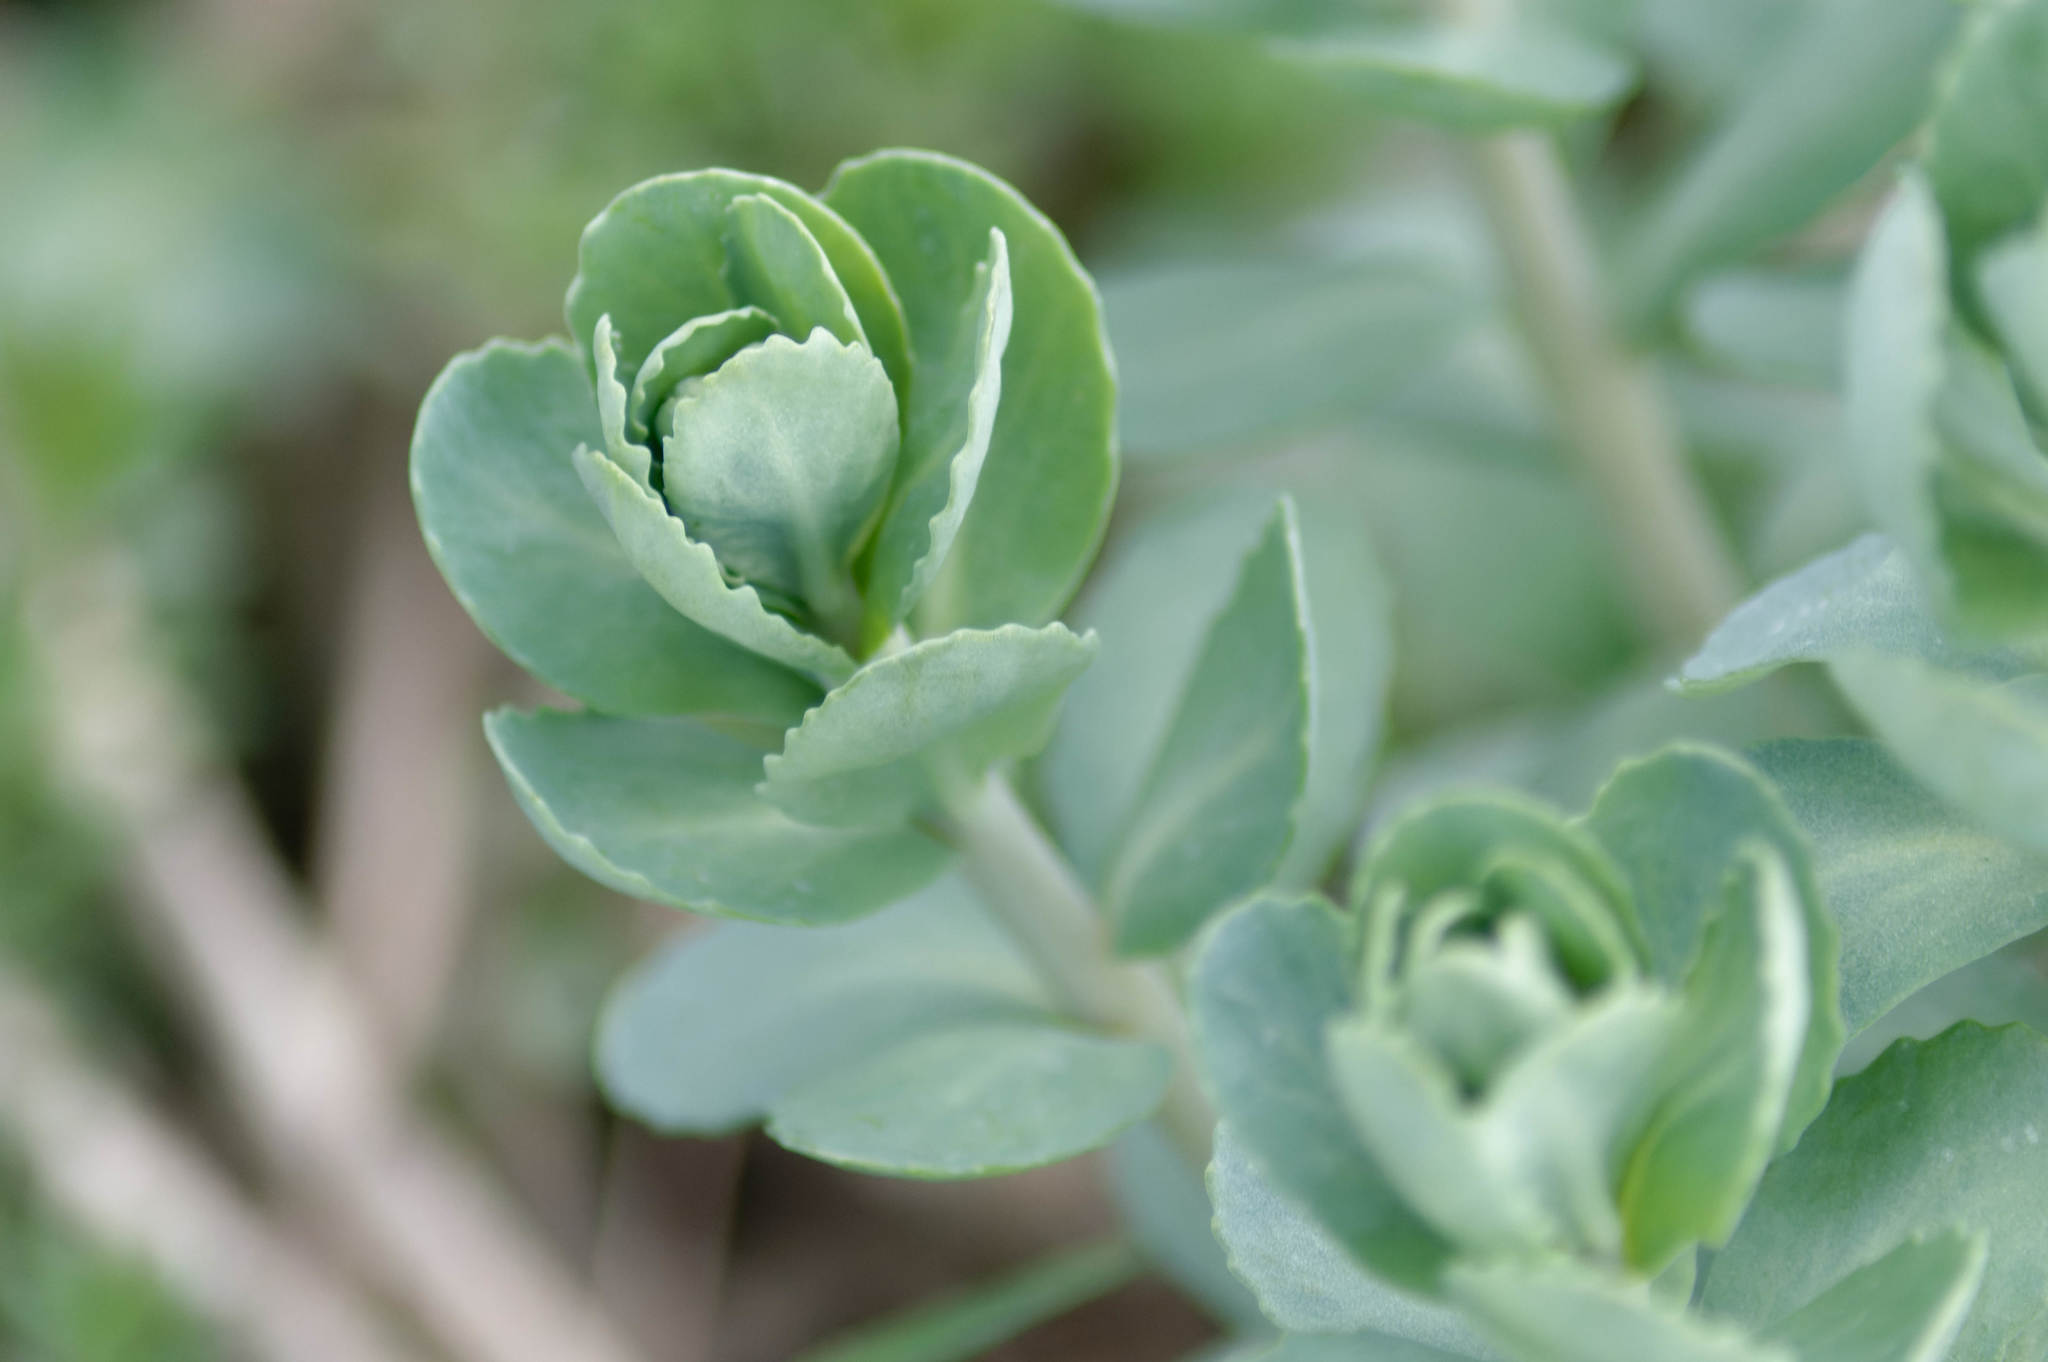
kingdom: Plantae
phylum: Tracheophyta
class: Magnoliopsida
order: Saxifragales
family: Crassulaceae
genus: Hylotelephium
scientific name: Hylotelephium telephium
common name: Live-forever
